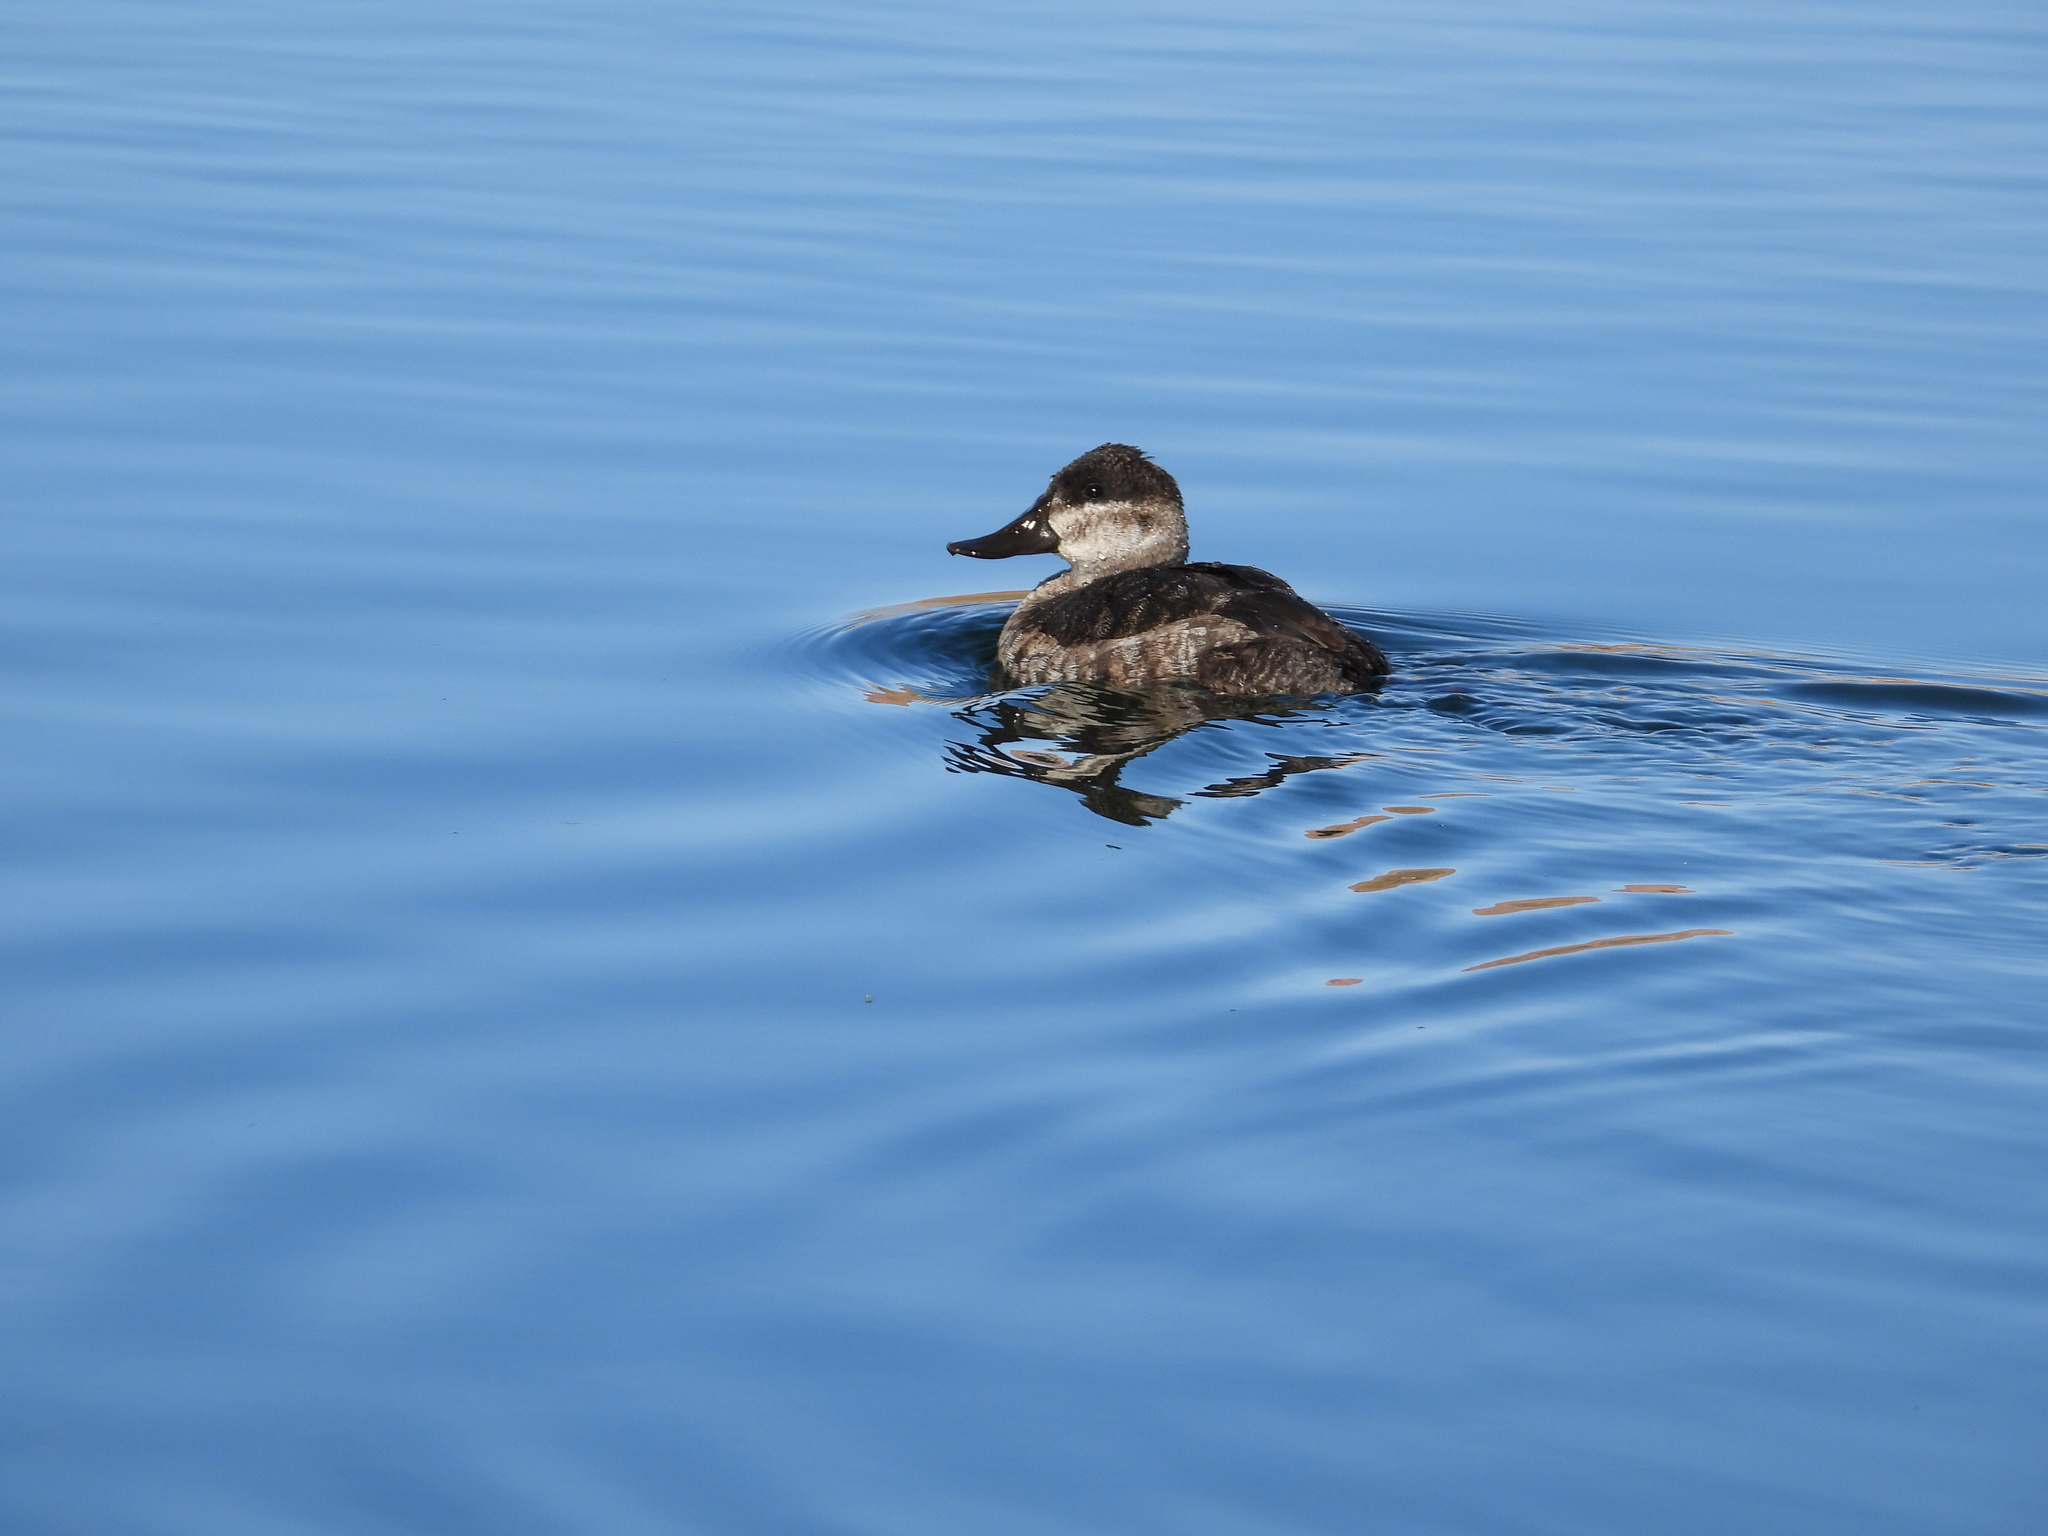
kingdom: Animalia
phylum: Chordata
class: Aves
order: Anseriformes
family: Anatidae
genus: Oxyura
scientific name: Oxyura jamaicensis
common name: Ruddy duck
